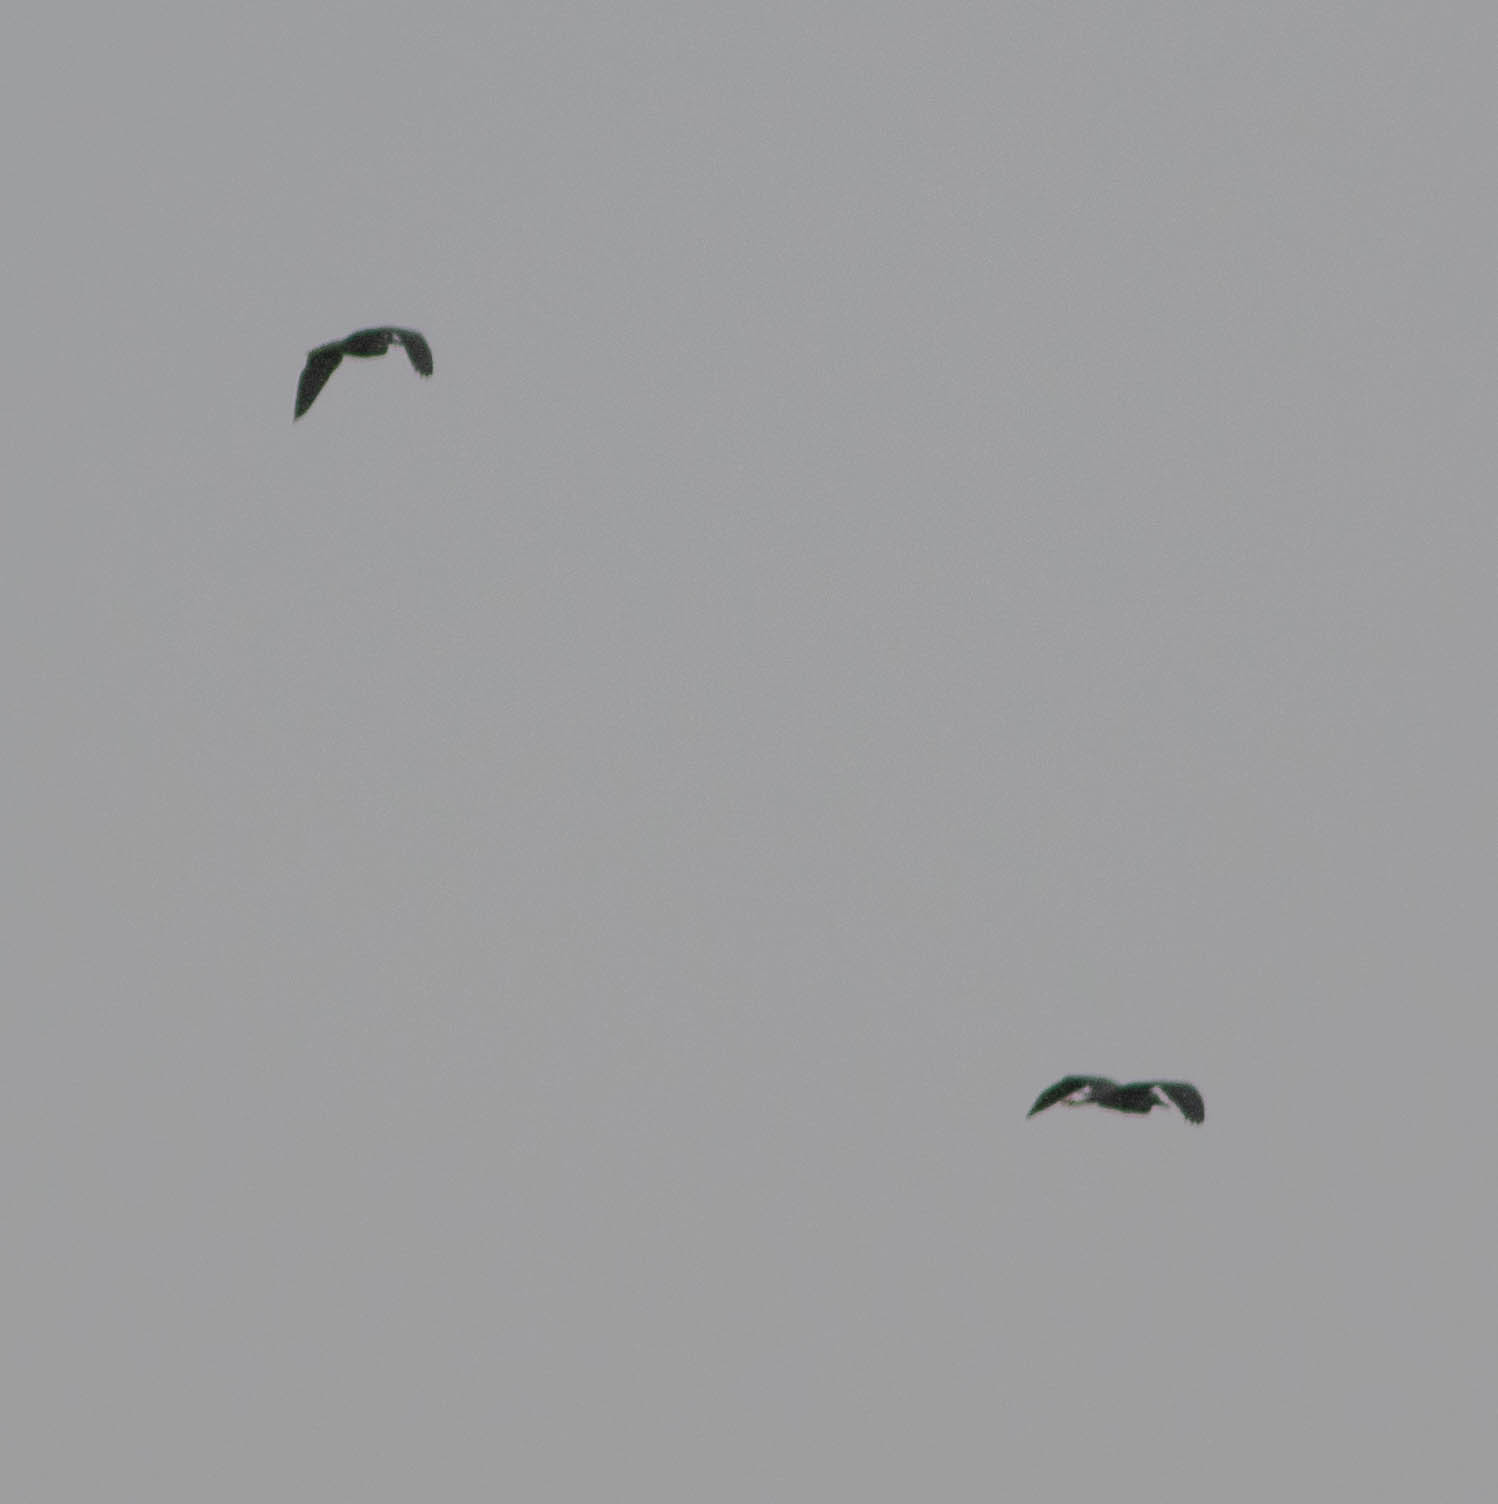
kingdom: Animalia
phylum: Chordata
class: Aves
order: Pelecaniformes
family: Ardeidae
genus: Nyctanassa
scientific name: Nyctanassa violacea
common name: Yellow-crowned night heron
